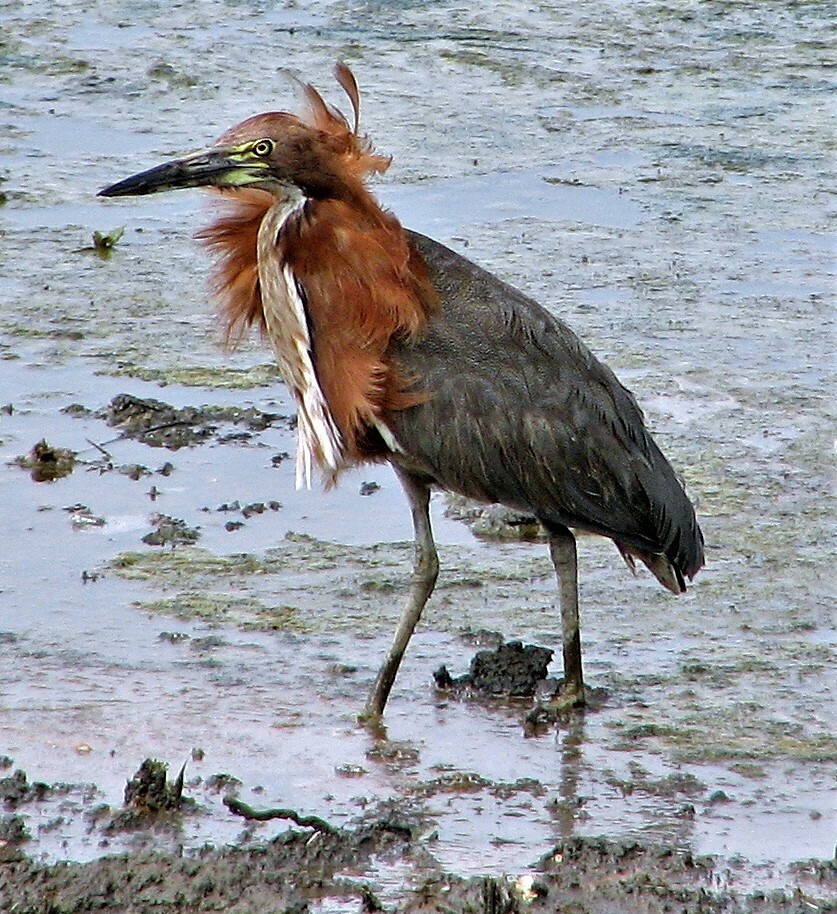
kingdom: Animalia
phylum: Chordata
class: Aves
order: Pelecaniformes
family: Ardeidae
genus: Tigrisoma
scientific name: Tigrisoma lineatum
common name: Rufescent tiger-heron
